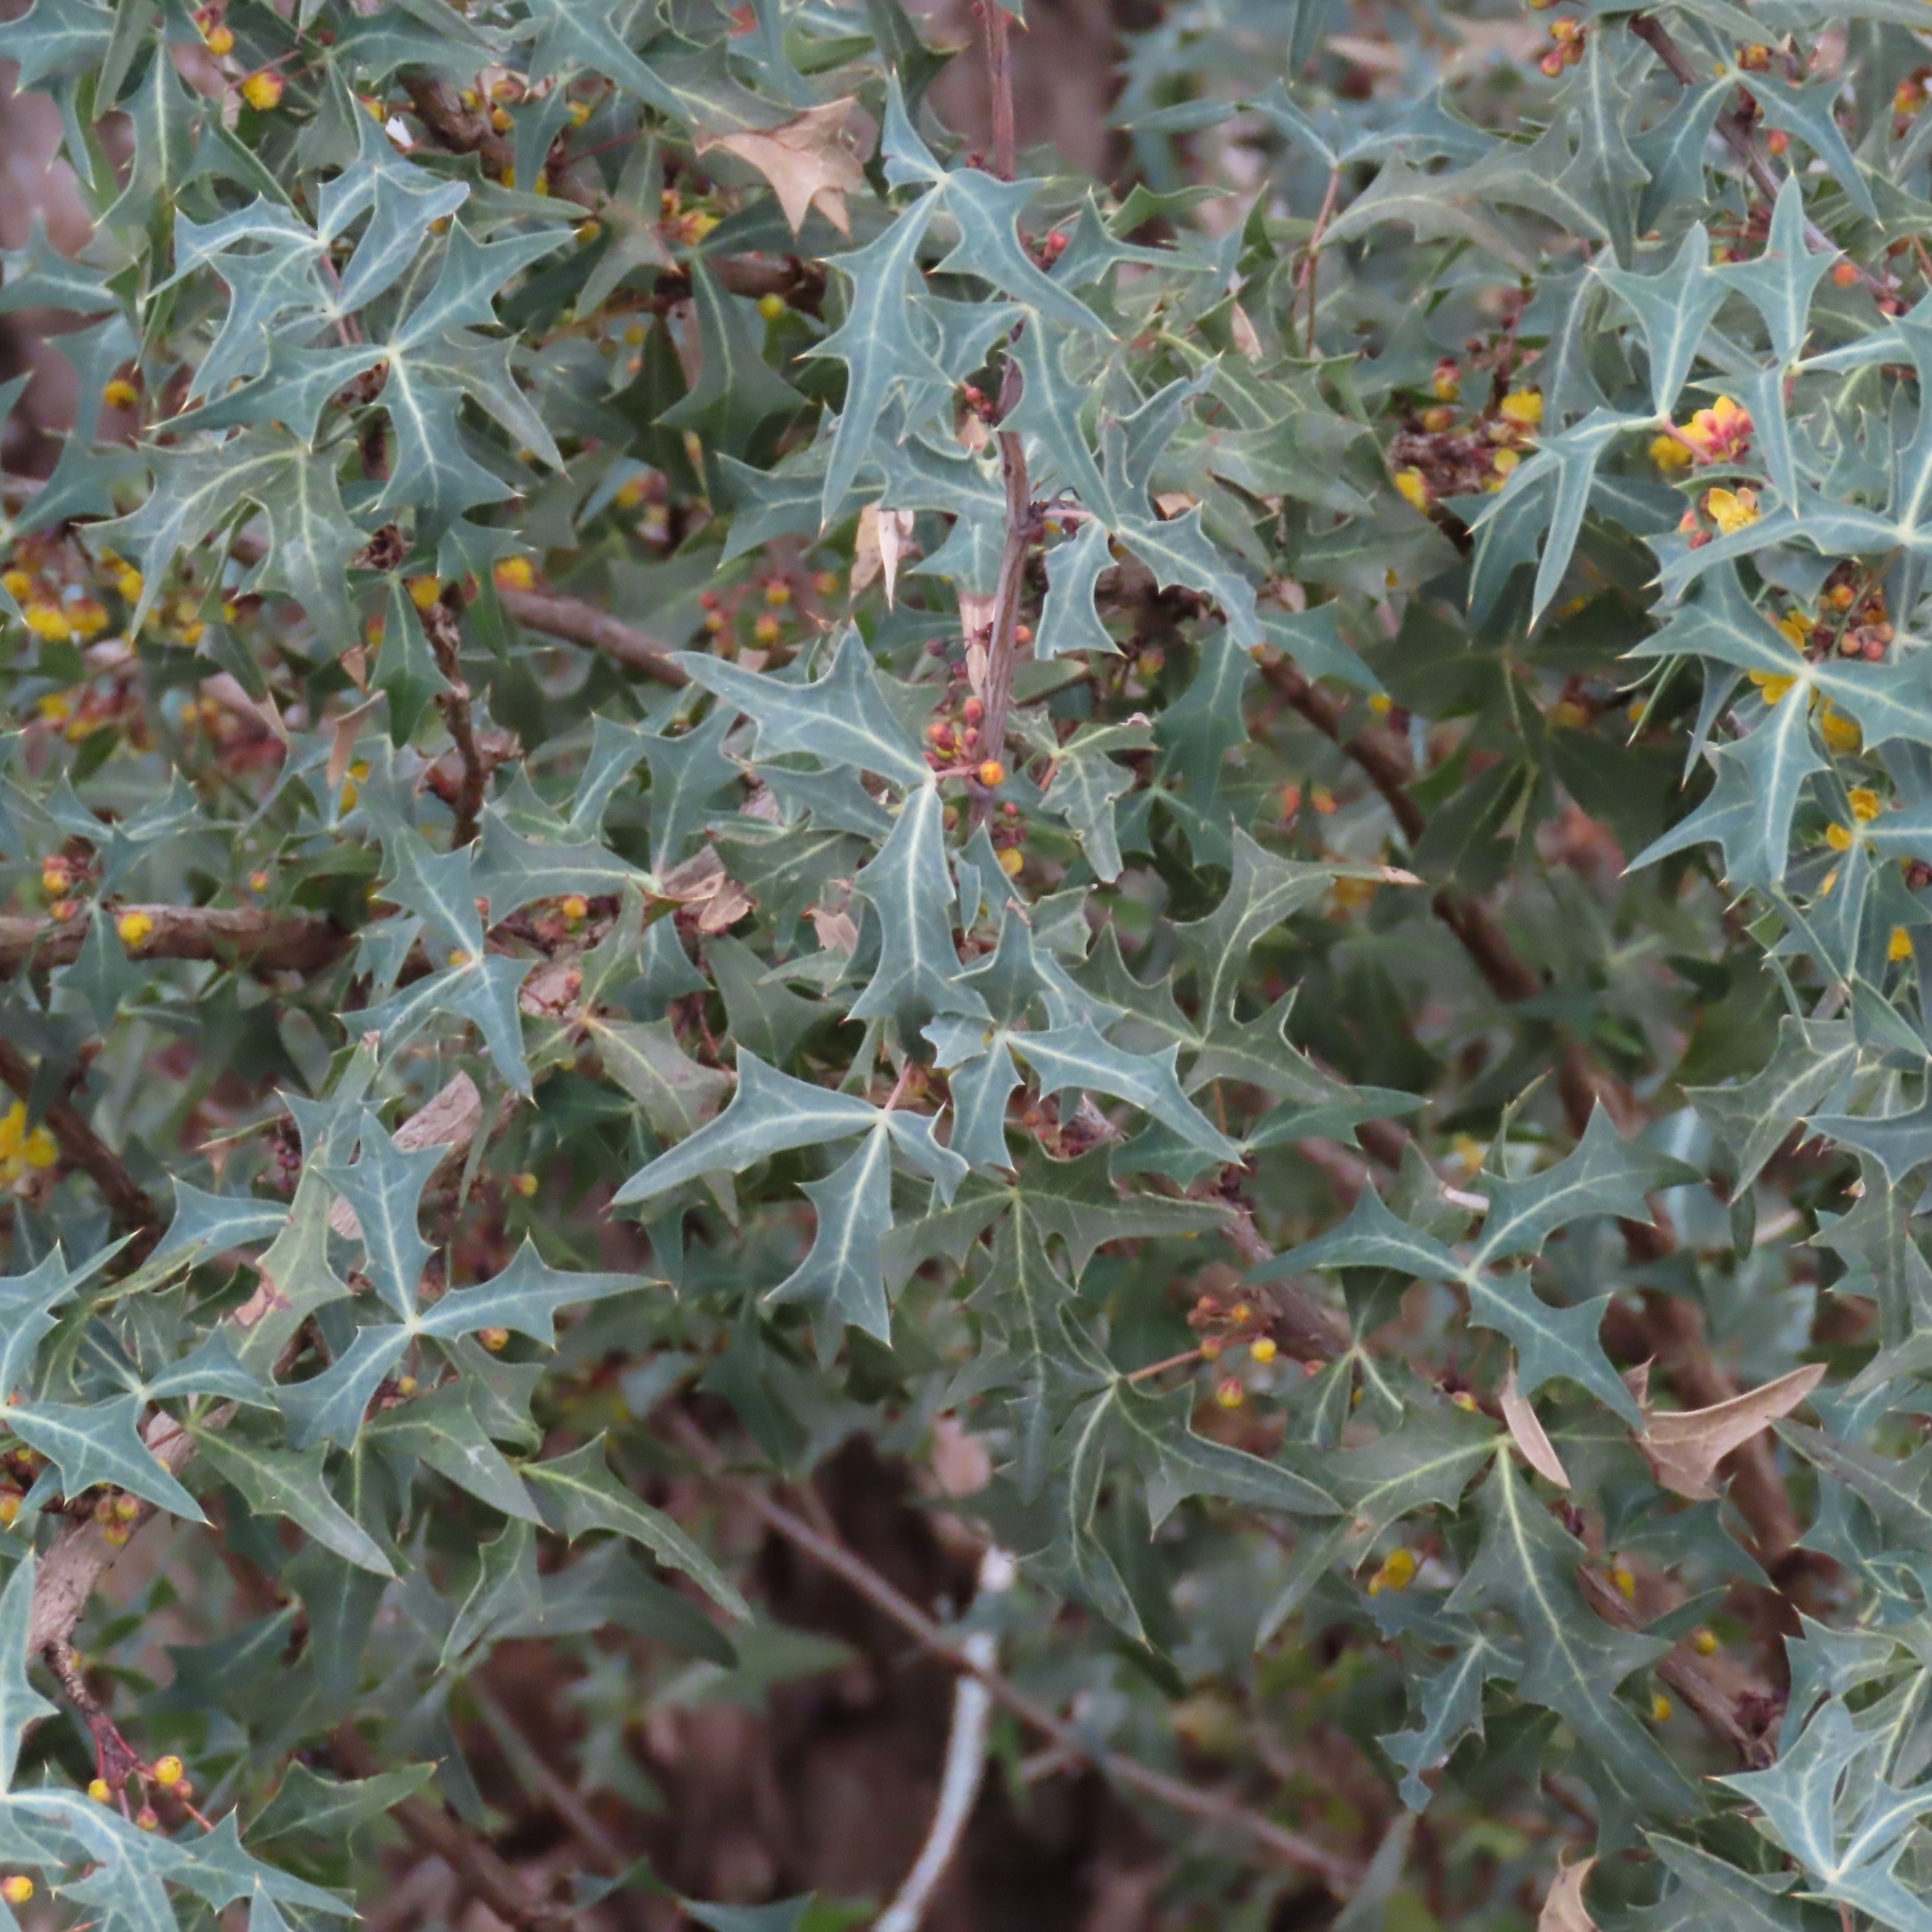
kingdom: Plantae
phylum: Tracheophyta
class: Magnoliopsida
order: Ranunculales
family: Berberidaceae
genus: Alloberberis
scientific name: Alloberberis trifoliolata
